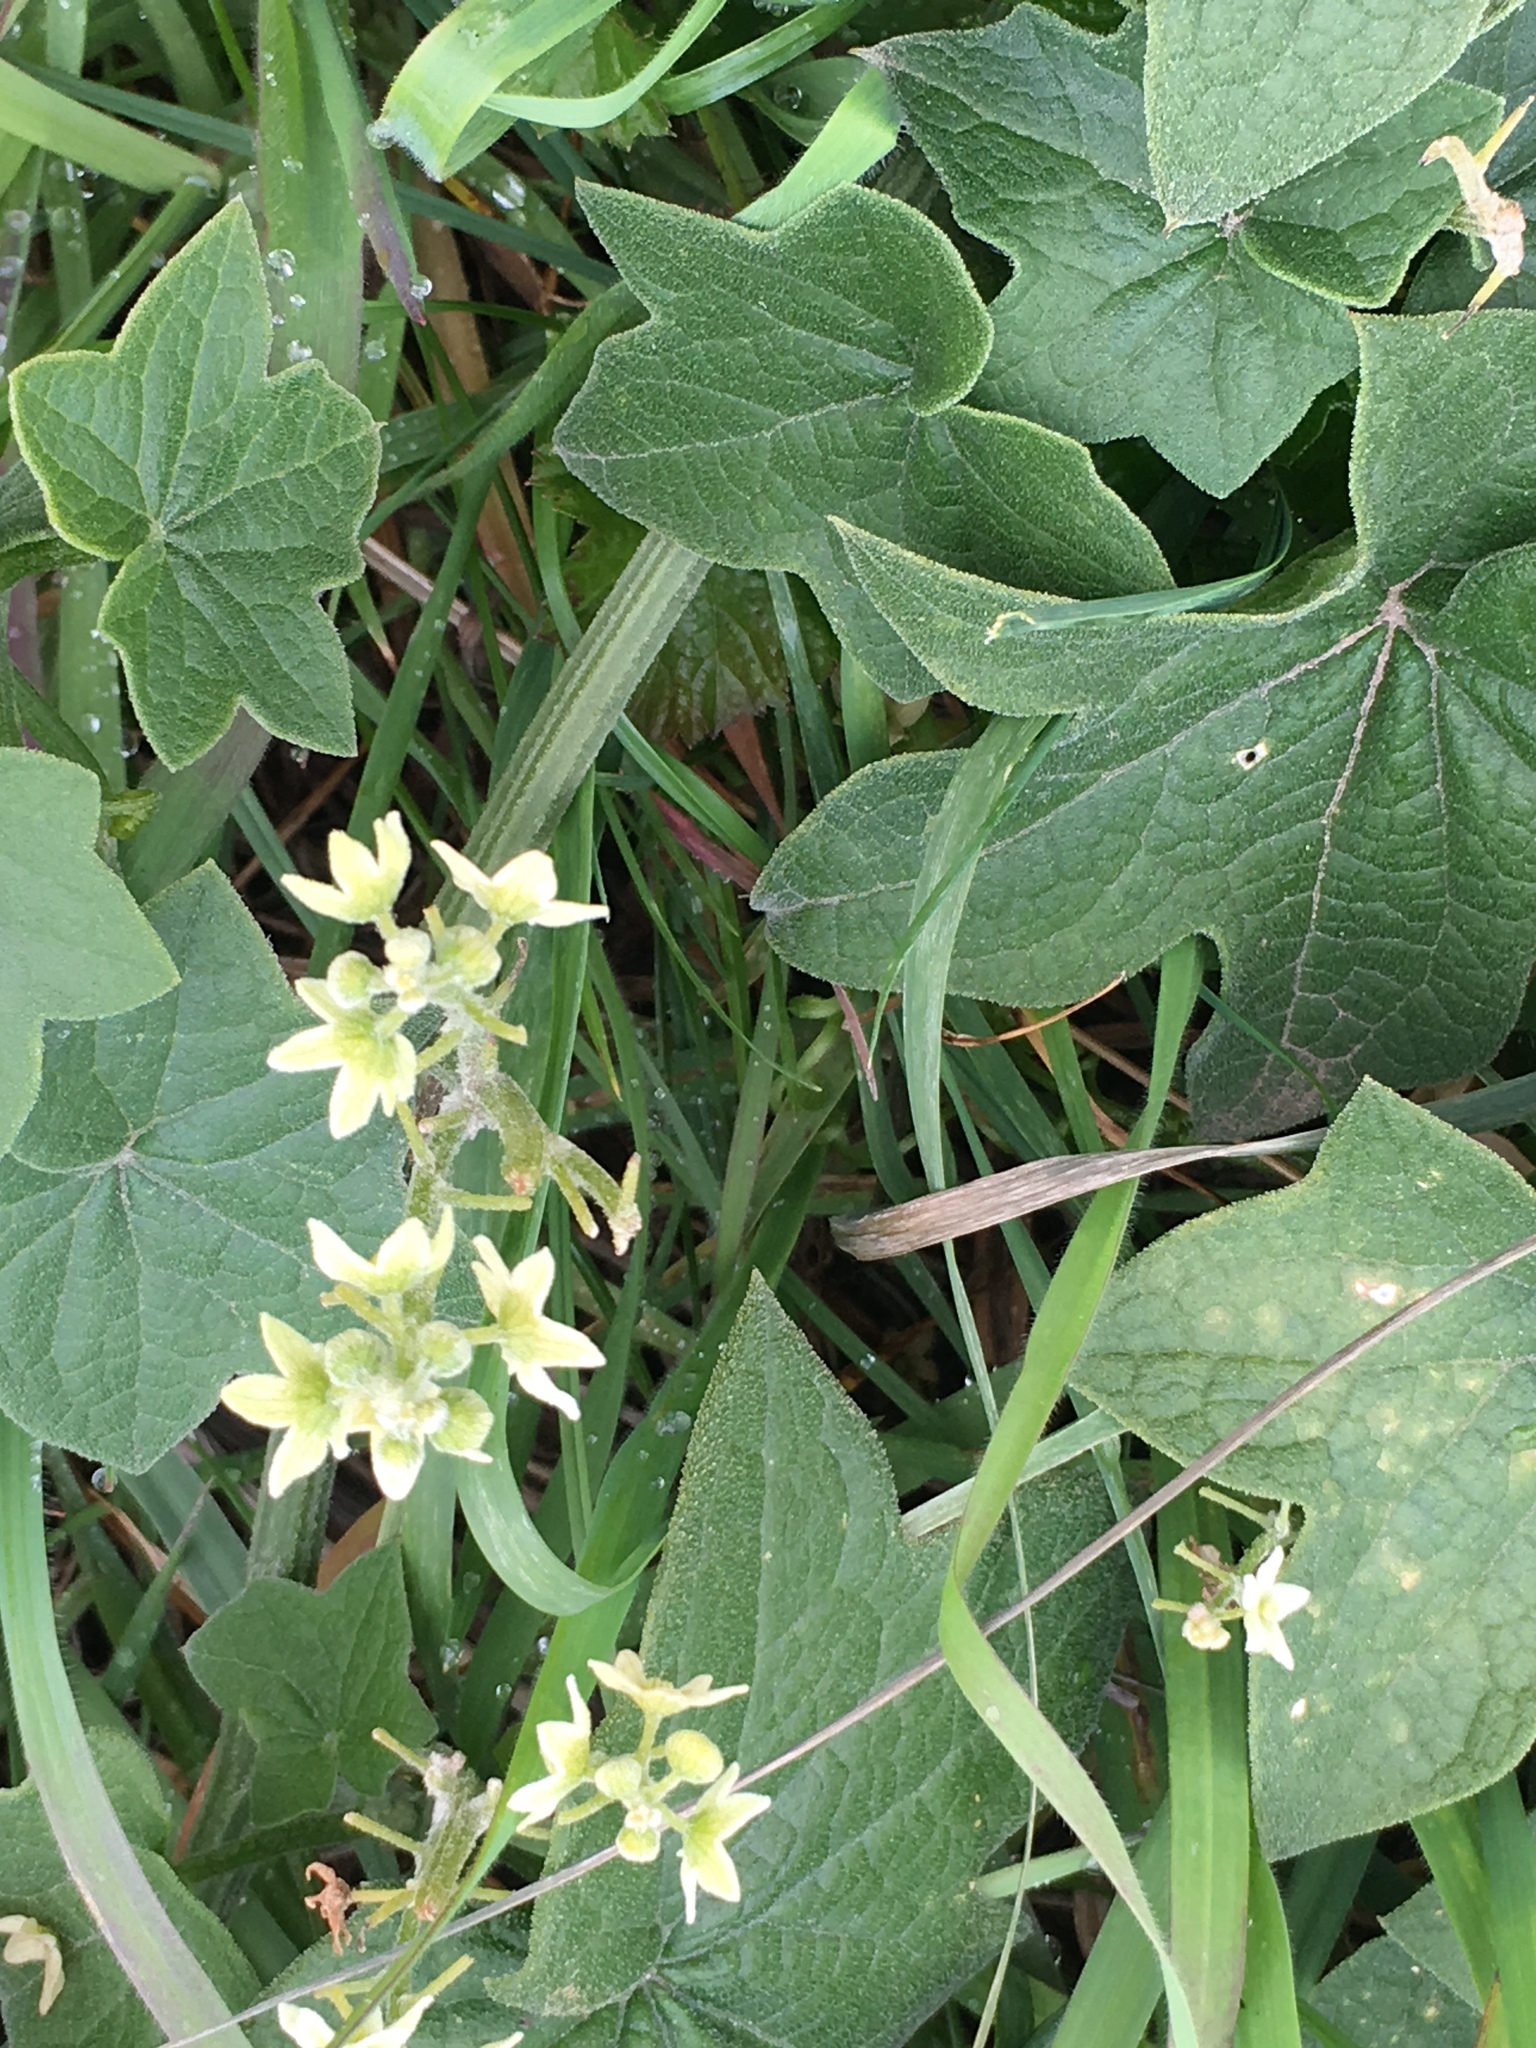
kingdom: Plantae
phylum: Tracheophyta
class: Magnoliopsida
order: Cucurbitales
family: Cucurbitaceae
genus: Marah
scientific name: Marah fabacea
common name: California manroot
